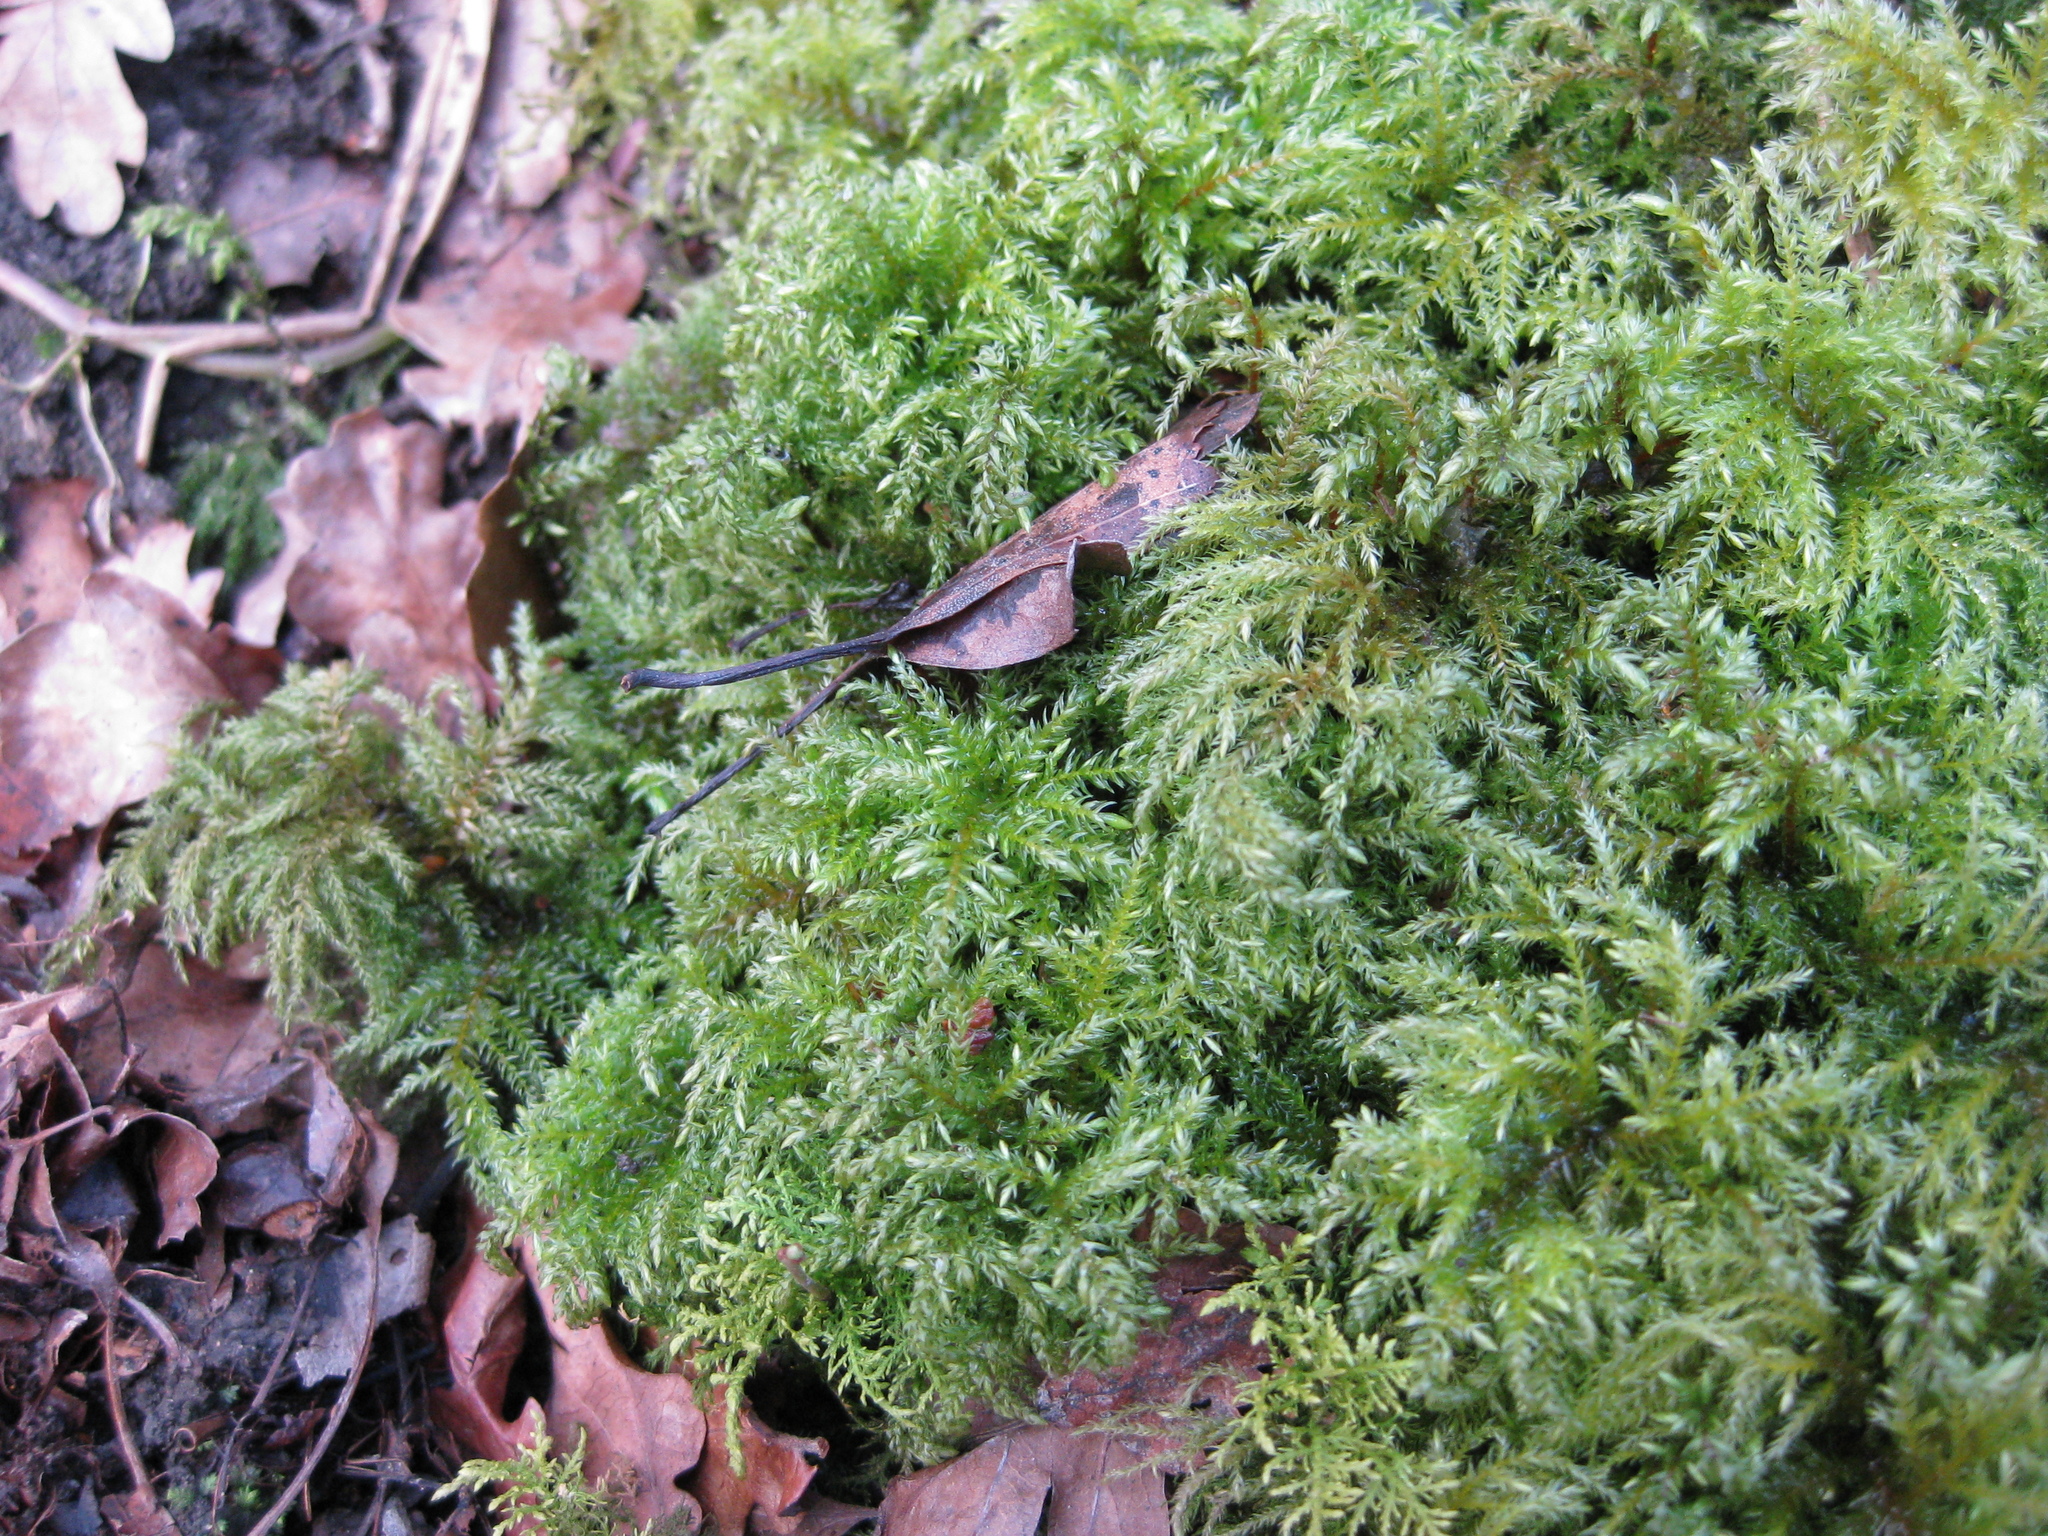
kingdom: Plantae
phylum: Bryophyta
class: Bryopsida
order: Hypnales
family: Neckeraceae
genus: Thamnobryum
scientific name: Thamnobryum alopecurum
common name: Fox-tail feather-moss
